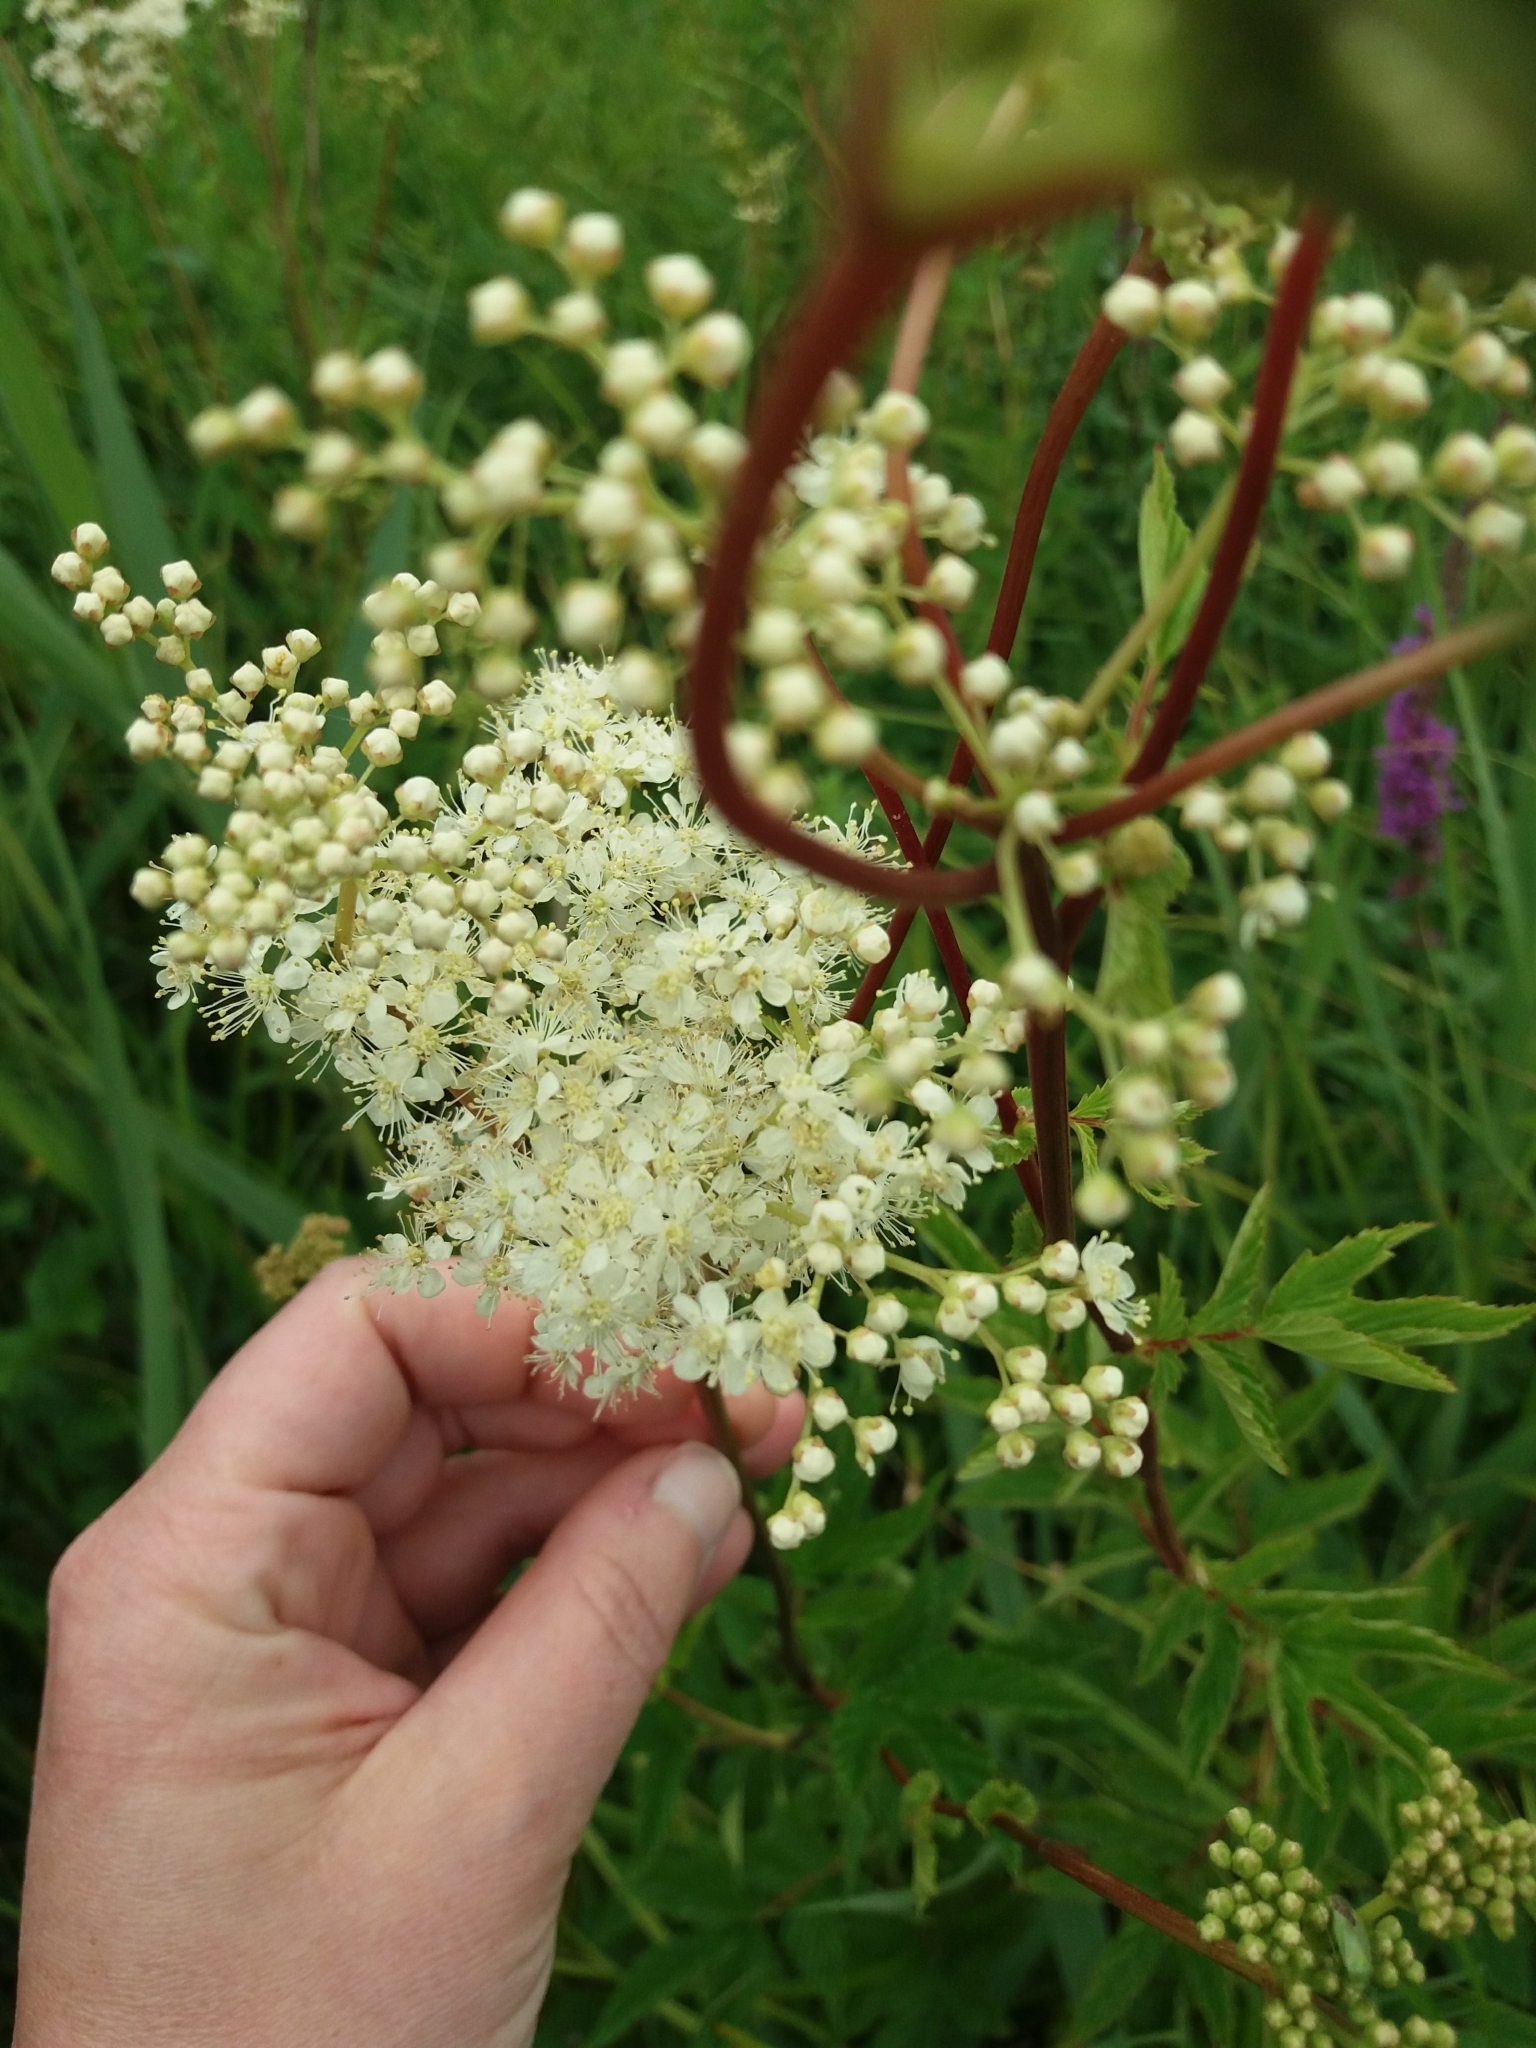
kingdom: Plantae
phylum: Tracheophyta
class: Magnoliopsida
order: Rosales
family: Rosaceae
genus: Filipendula
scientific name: Filipendula ulmaria
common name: Meadowsweet
